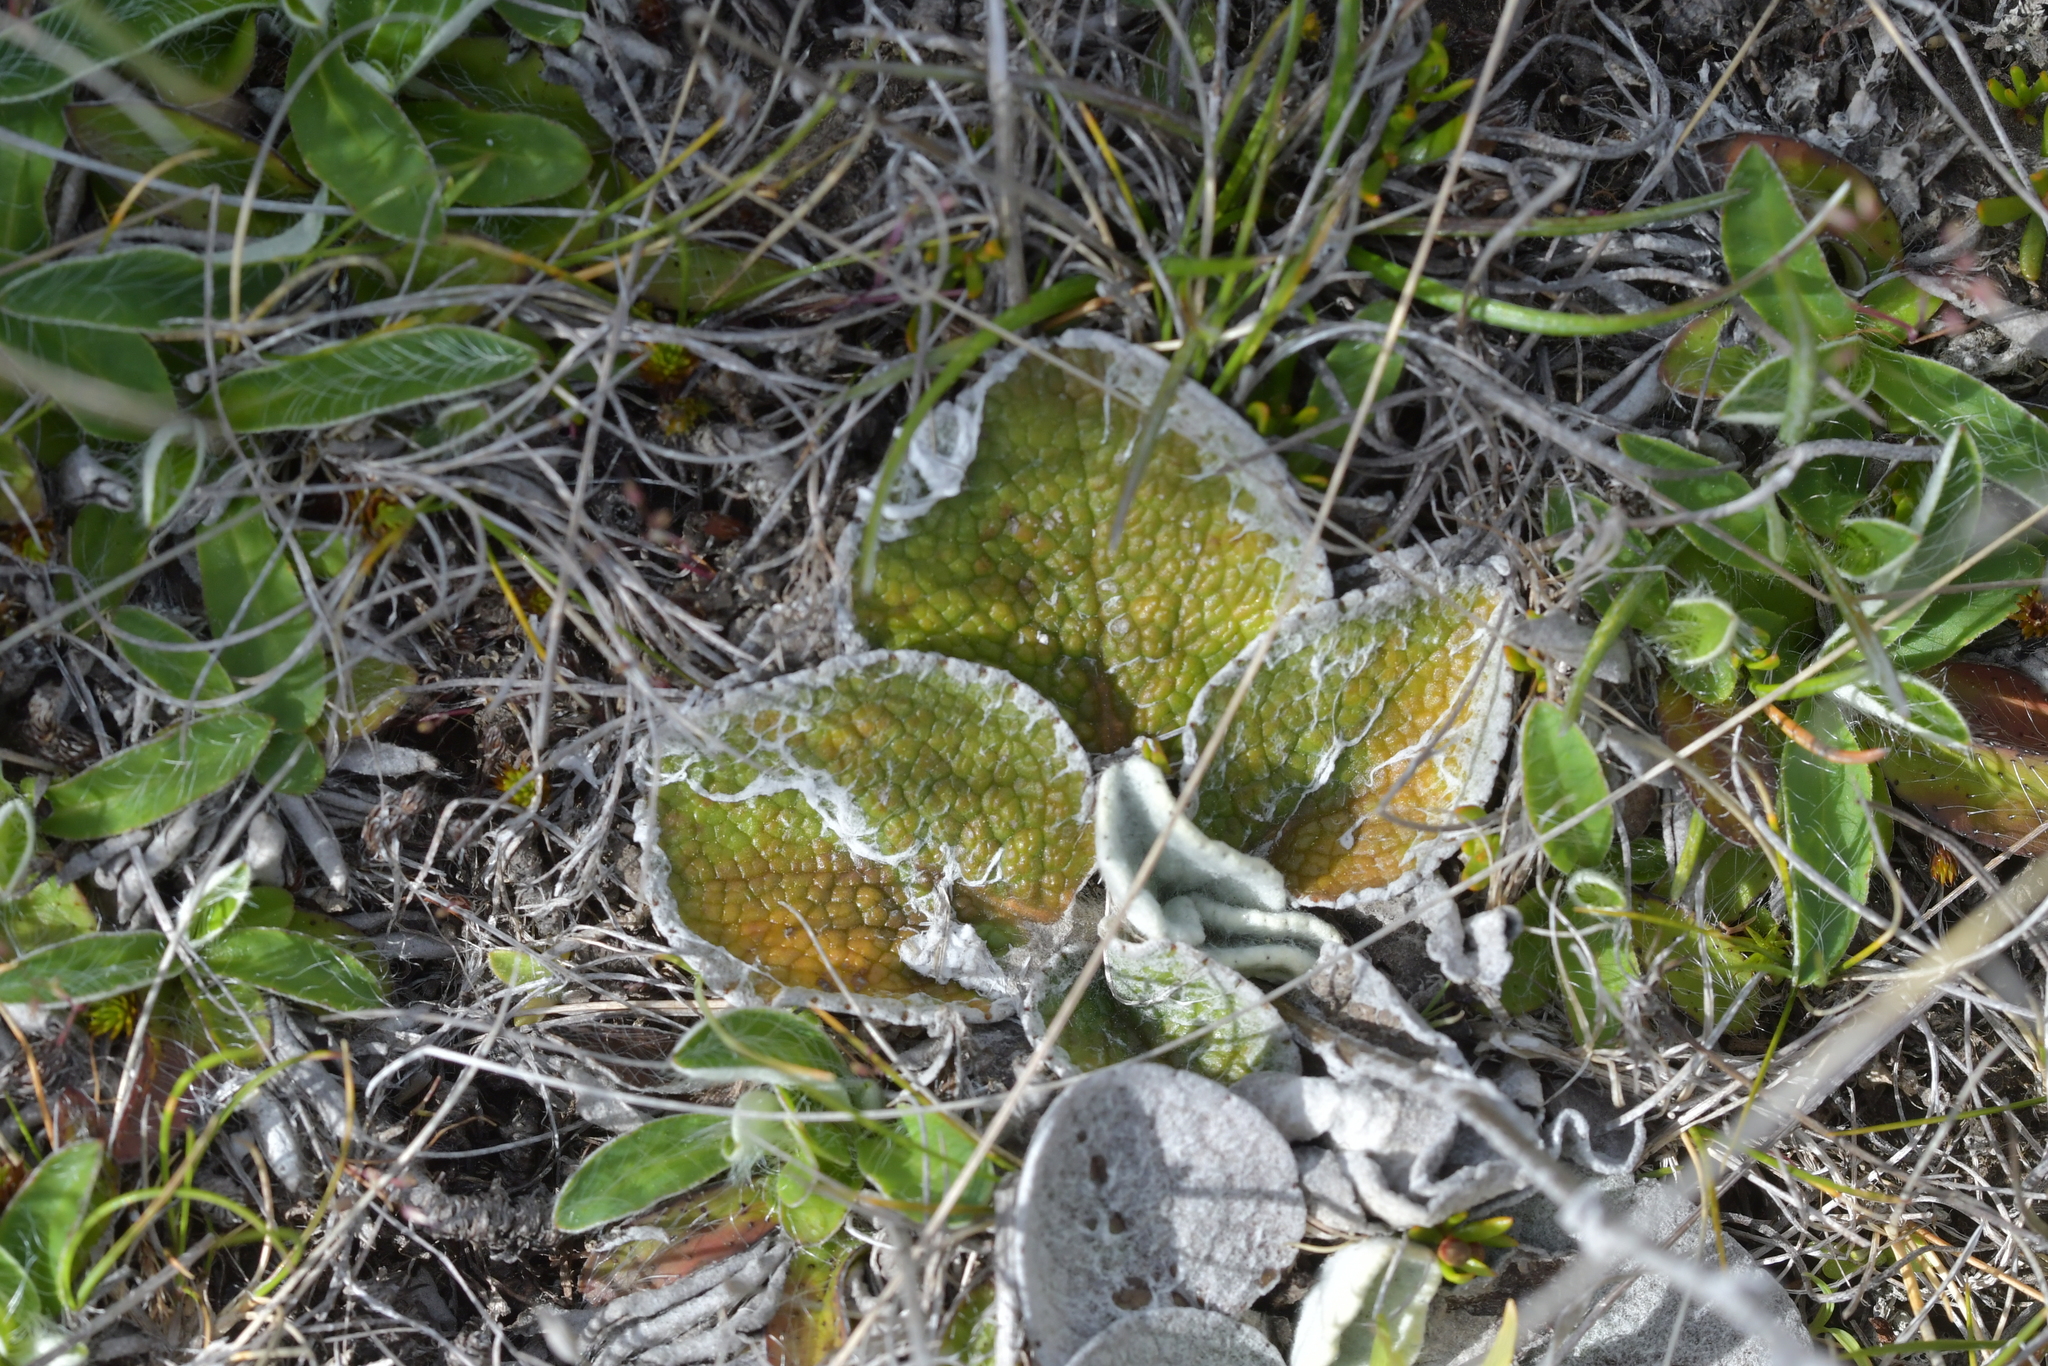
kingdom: Plantae
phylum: Tracheophyta
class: Magnoliopsida
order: Asterales
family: Asteraceae
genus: Brachyglottis
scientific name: Brachyglottis haastii
